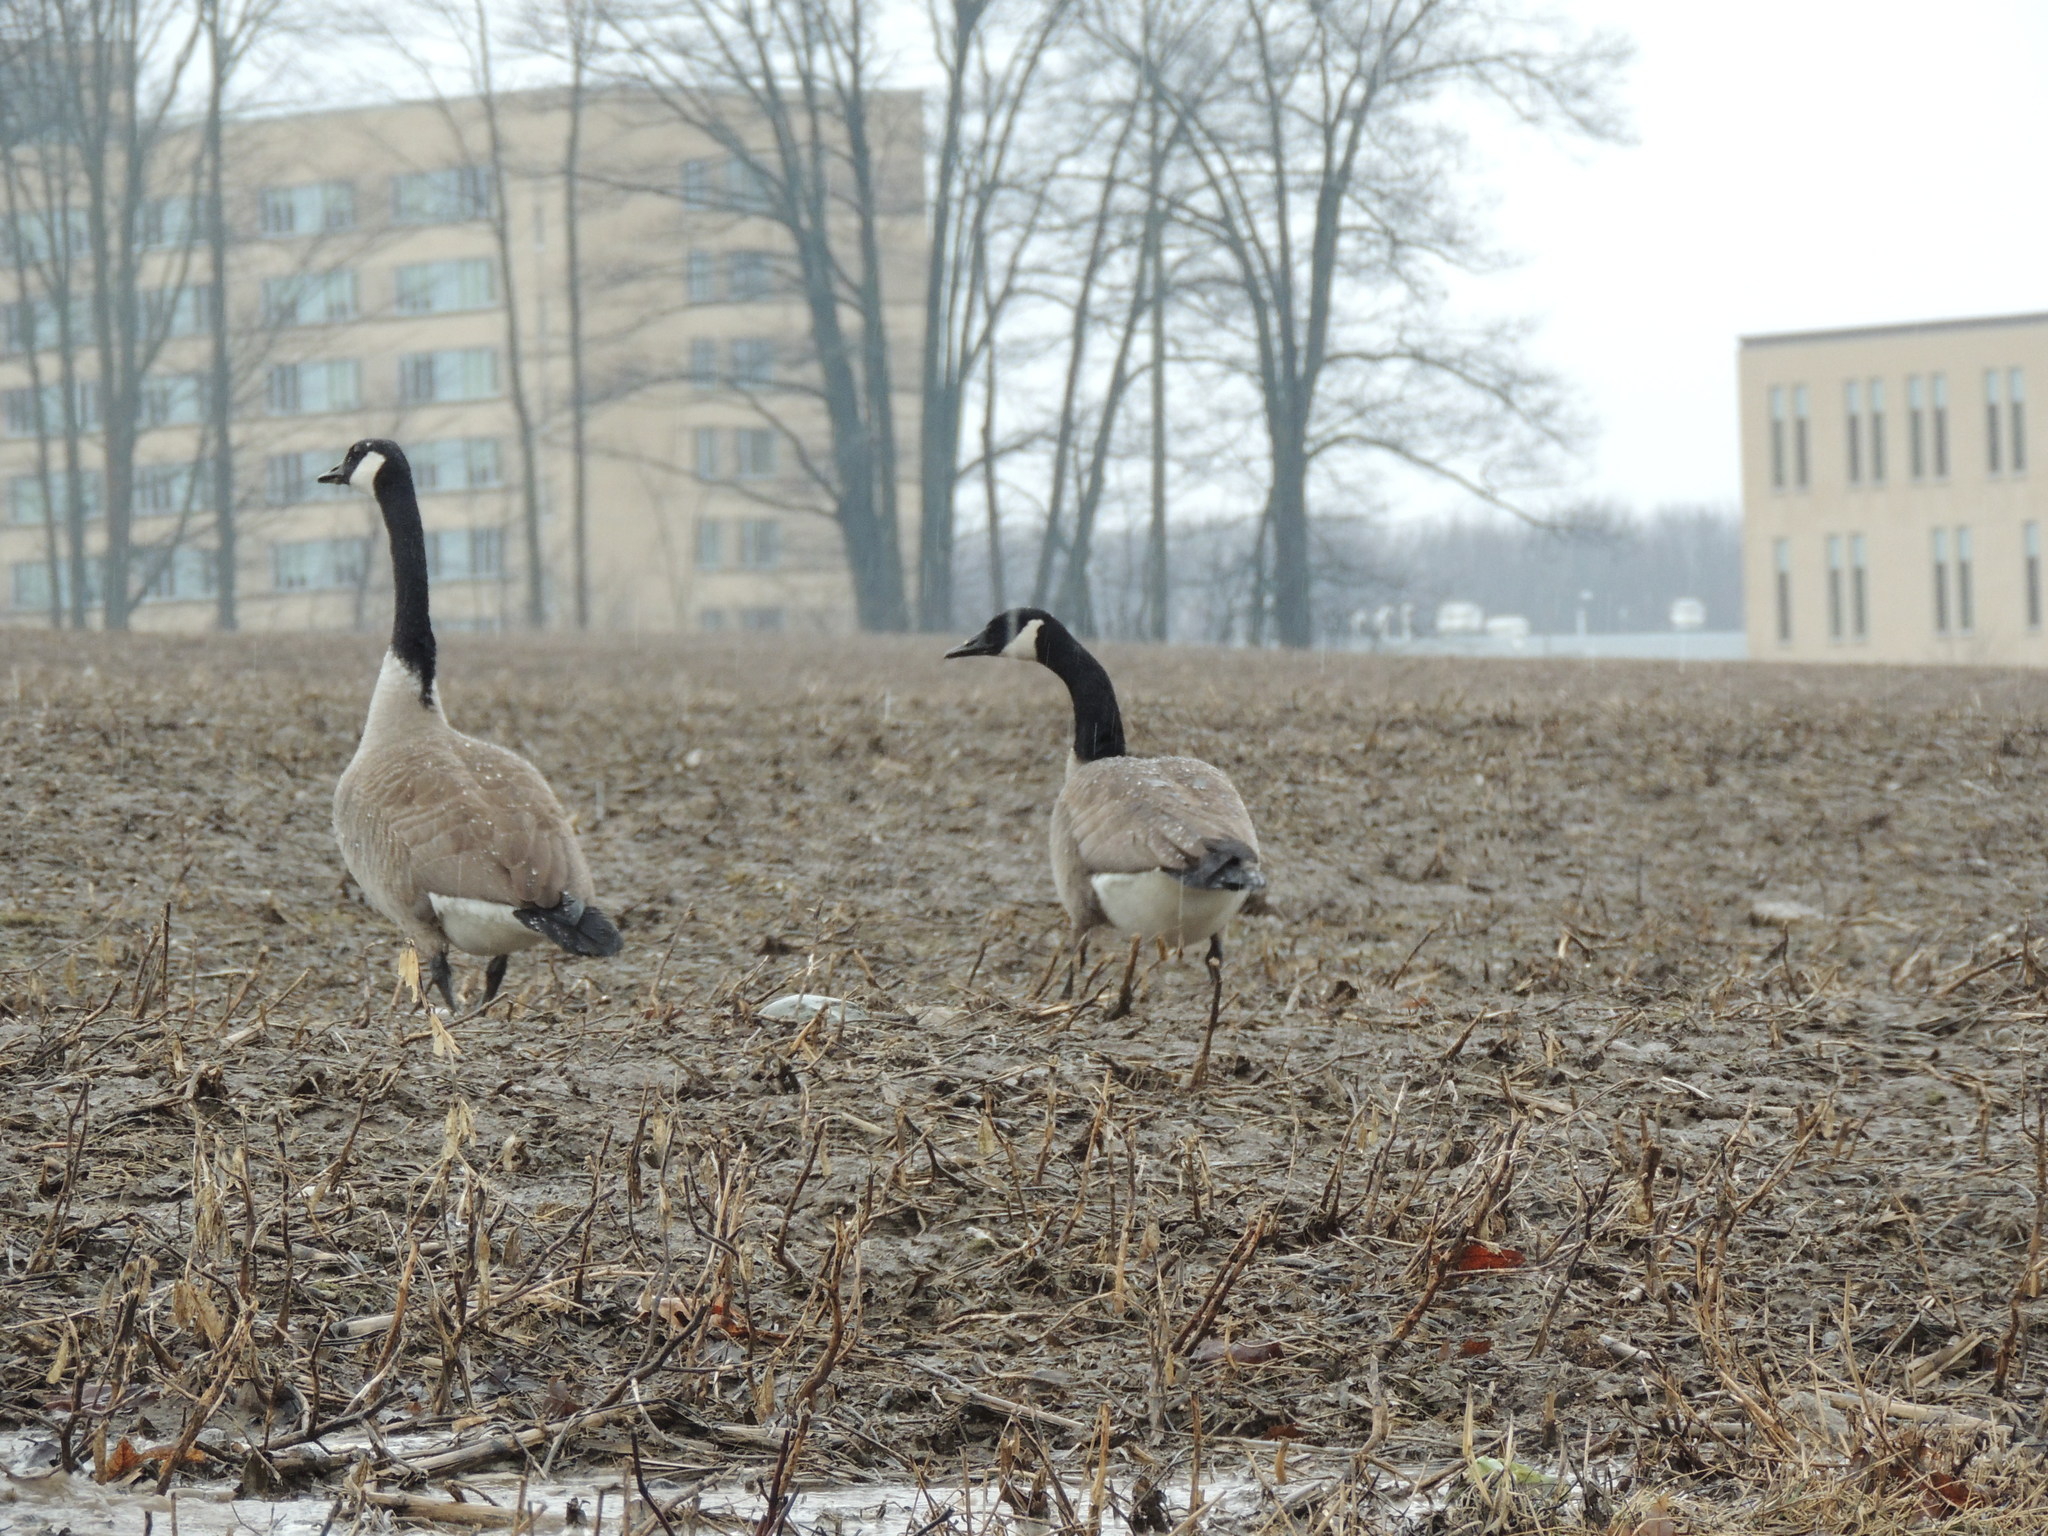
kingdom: Animalia
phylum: Chordata
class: Aves
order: Anseriformes
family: Anatidae
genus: Branta
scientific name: Branta canadensis
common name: Canada goose
